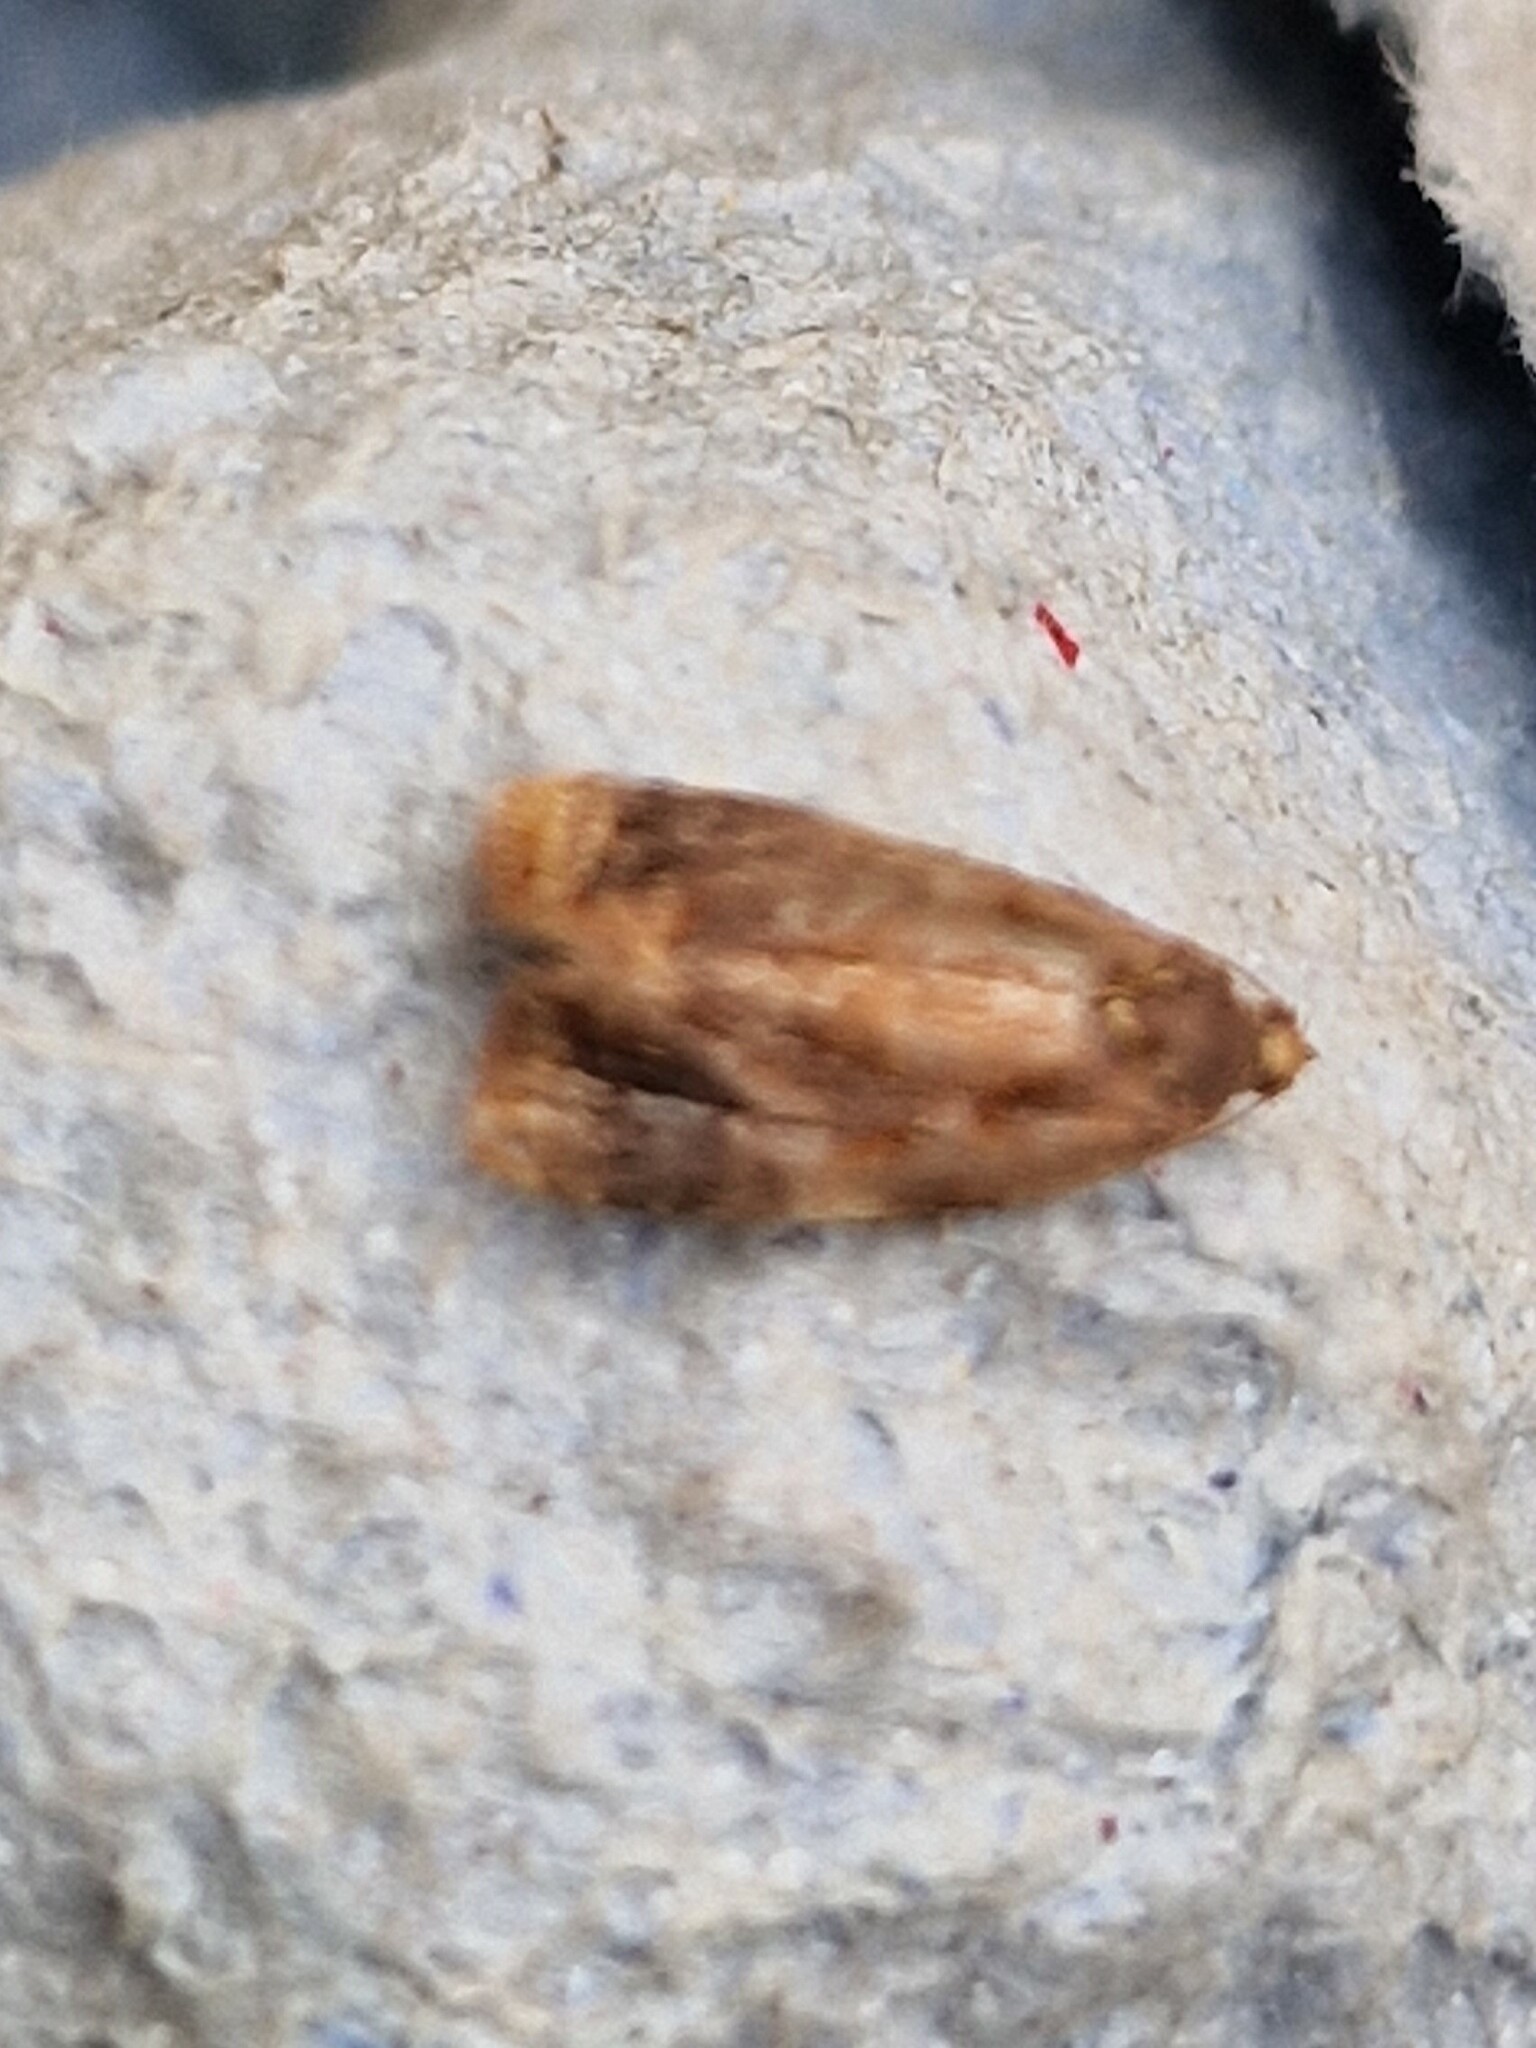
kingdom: Animalia
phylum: Arthropoda
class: Insecta
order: Lepidoptera
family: Tortricidae
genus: Ditula
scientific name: Ditula angustiorana
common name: Red-barred tortrix
